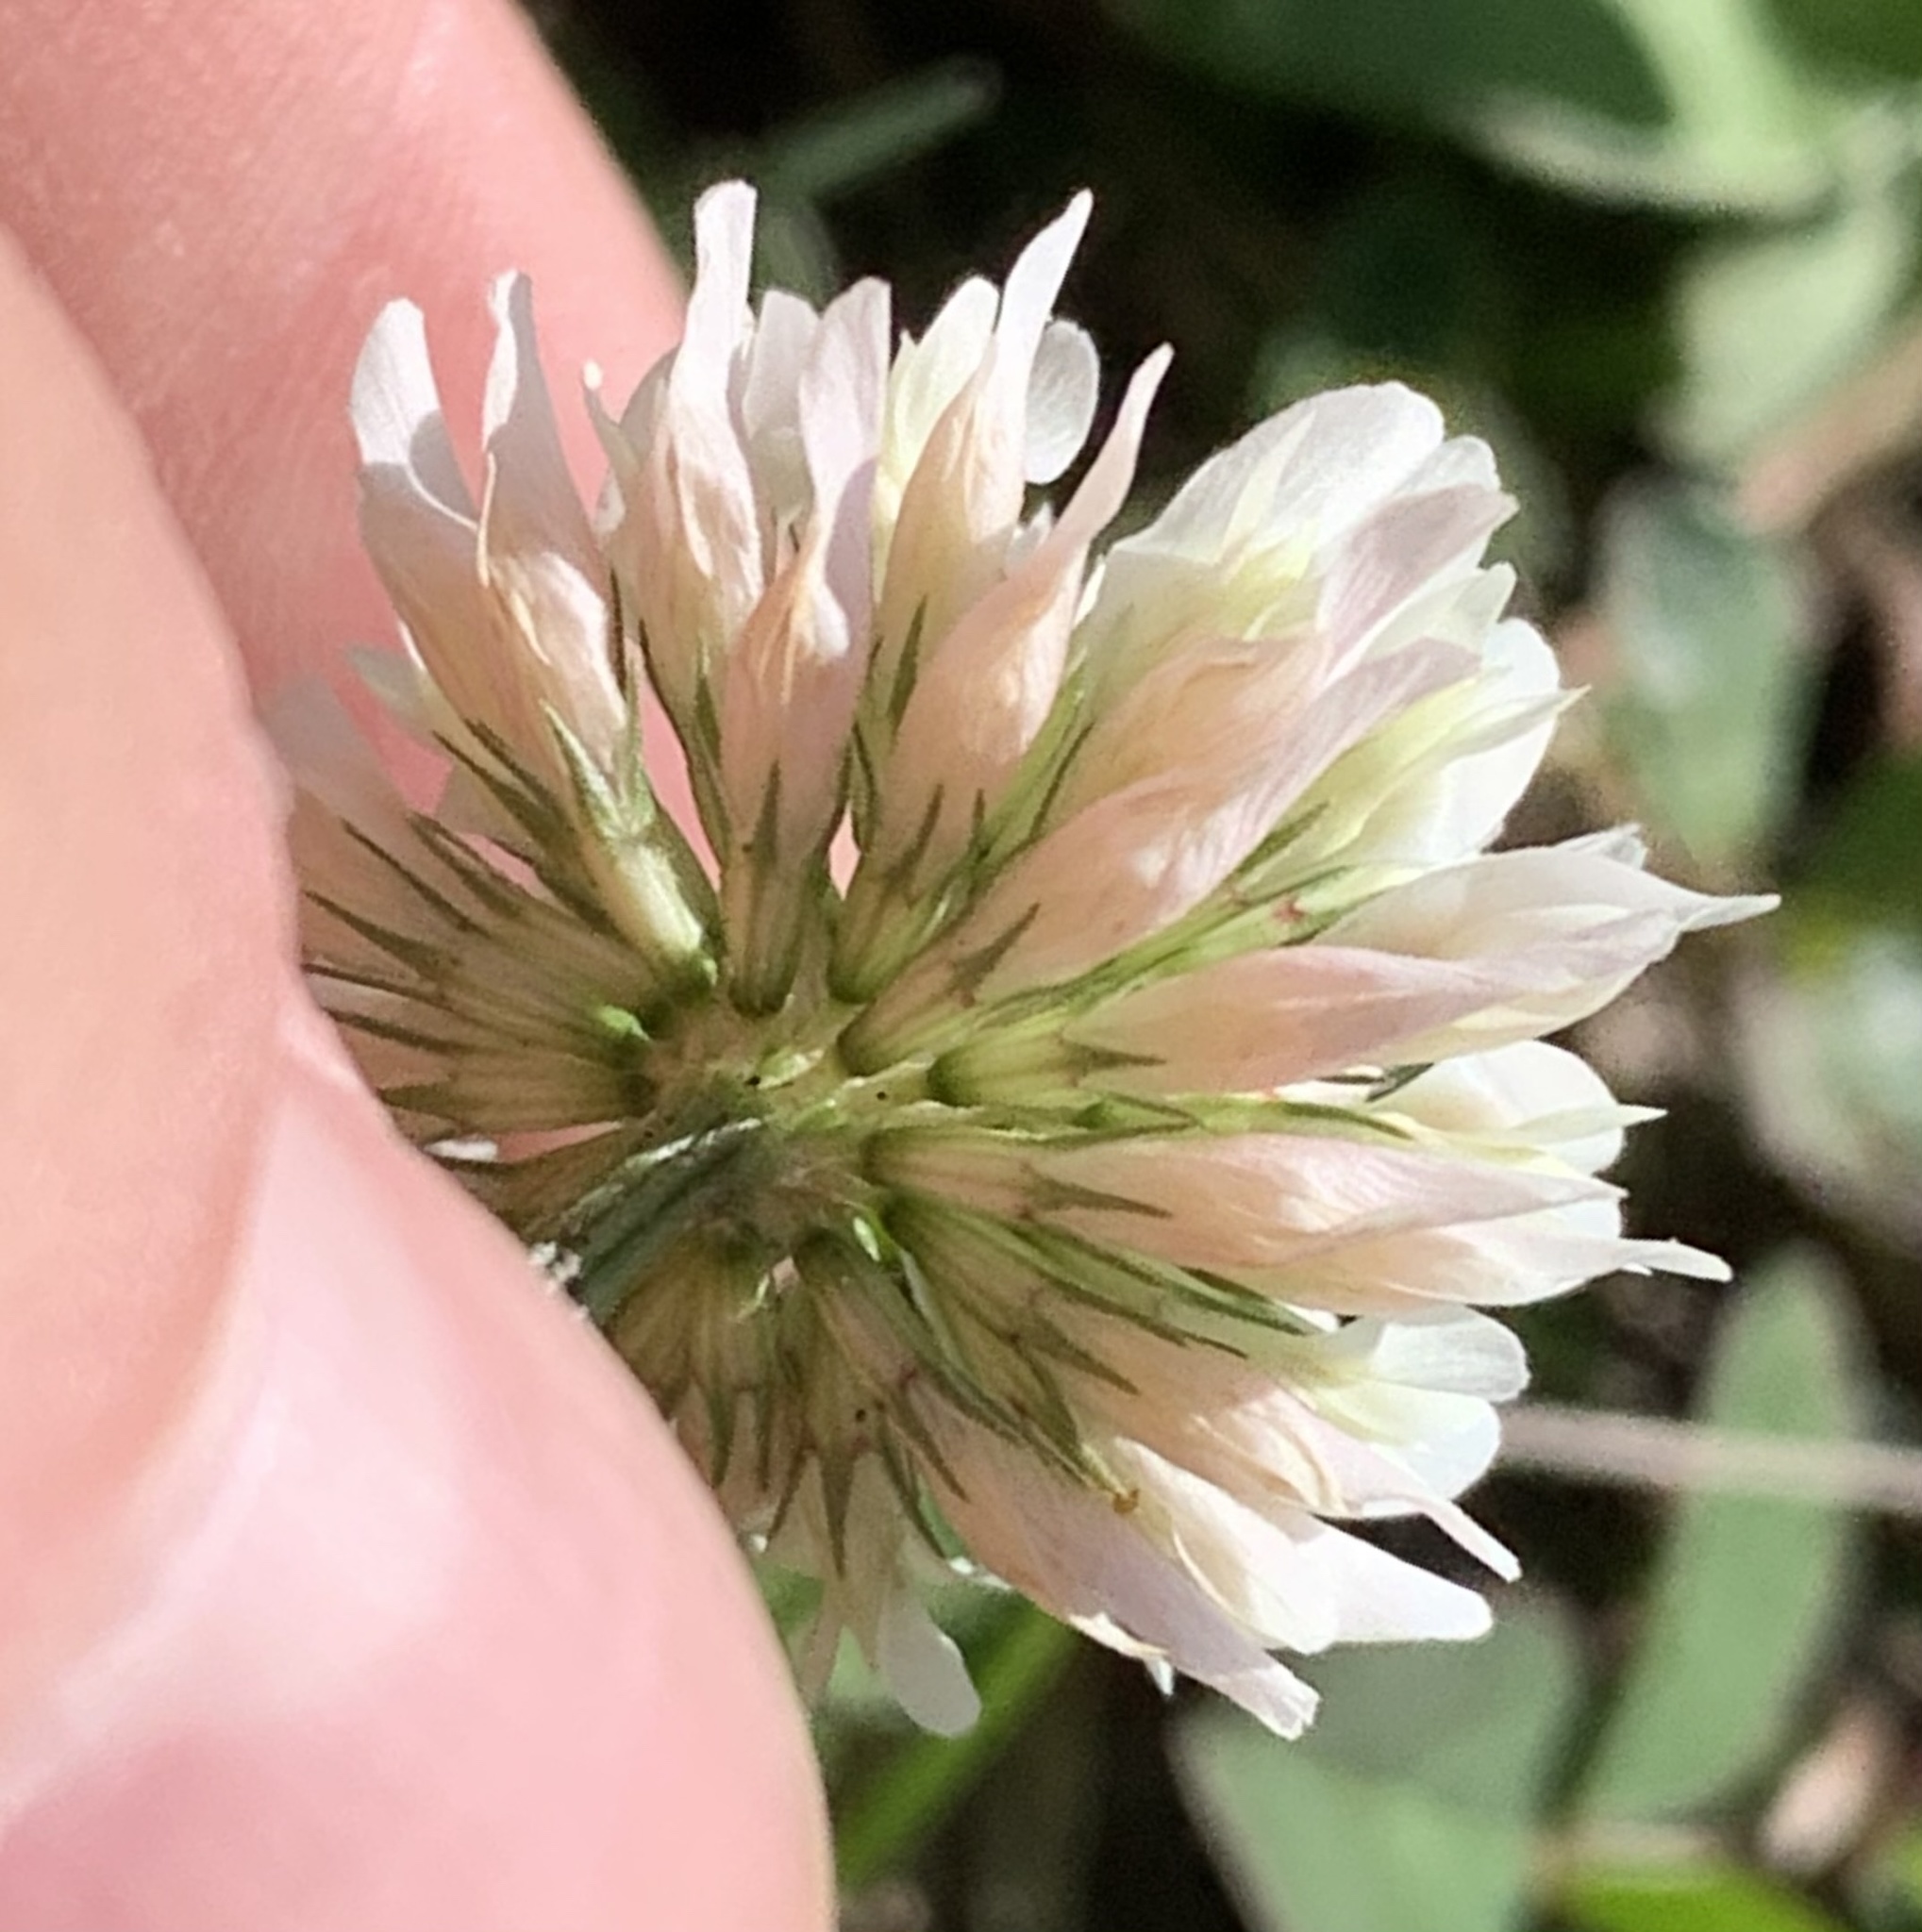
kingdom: Plantae
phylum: Tracheophyta
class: Magnoliopsida
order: Fabales
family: Fabaceae
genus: Trifolium
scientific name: Trifolium repens
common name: White clover
